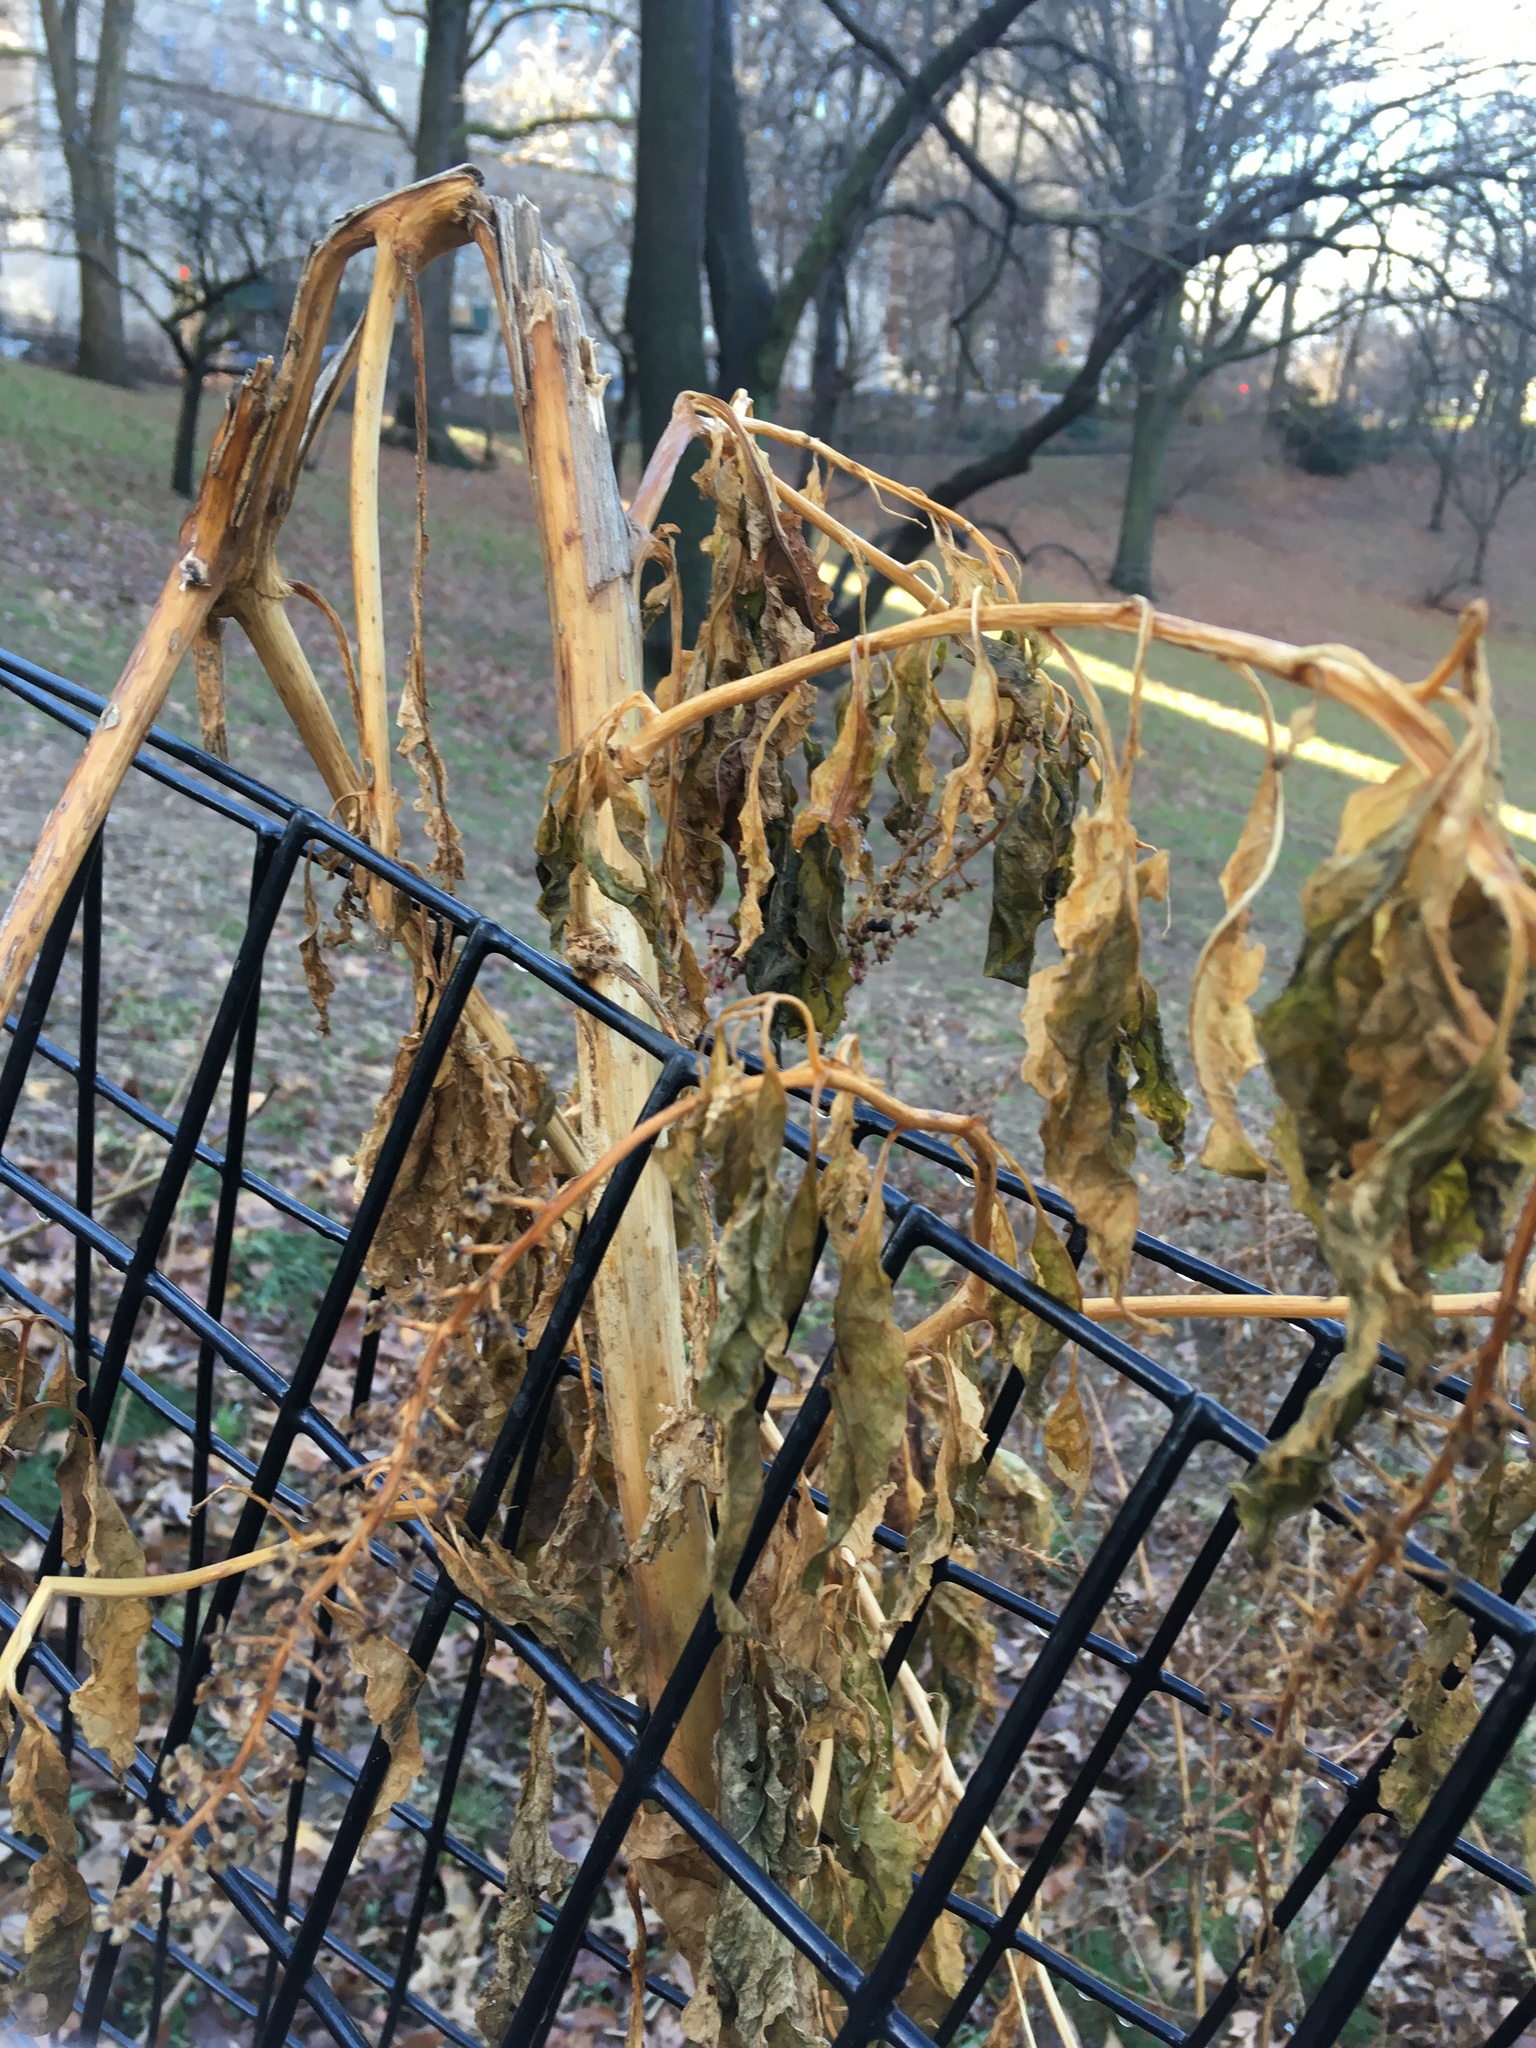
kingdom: Plantae
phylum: Tracheophyta
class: Magnoliopsida
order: Caryophyllales
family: Phytolaccaceae
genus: Phytolacca
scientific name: Phytolacca americana
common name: American pokeweed
